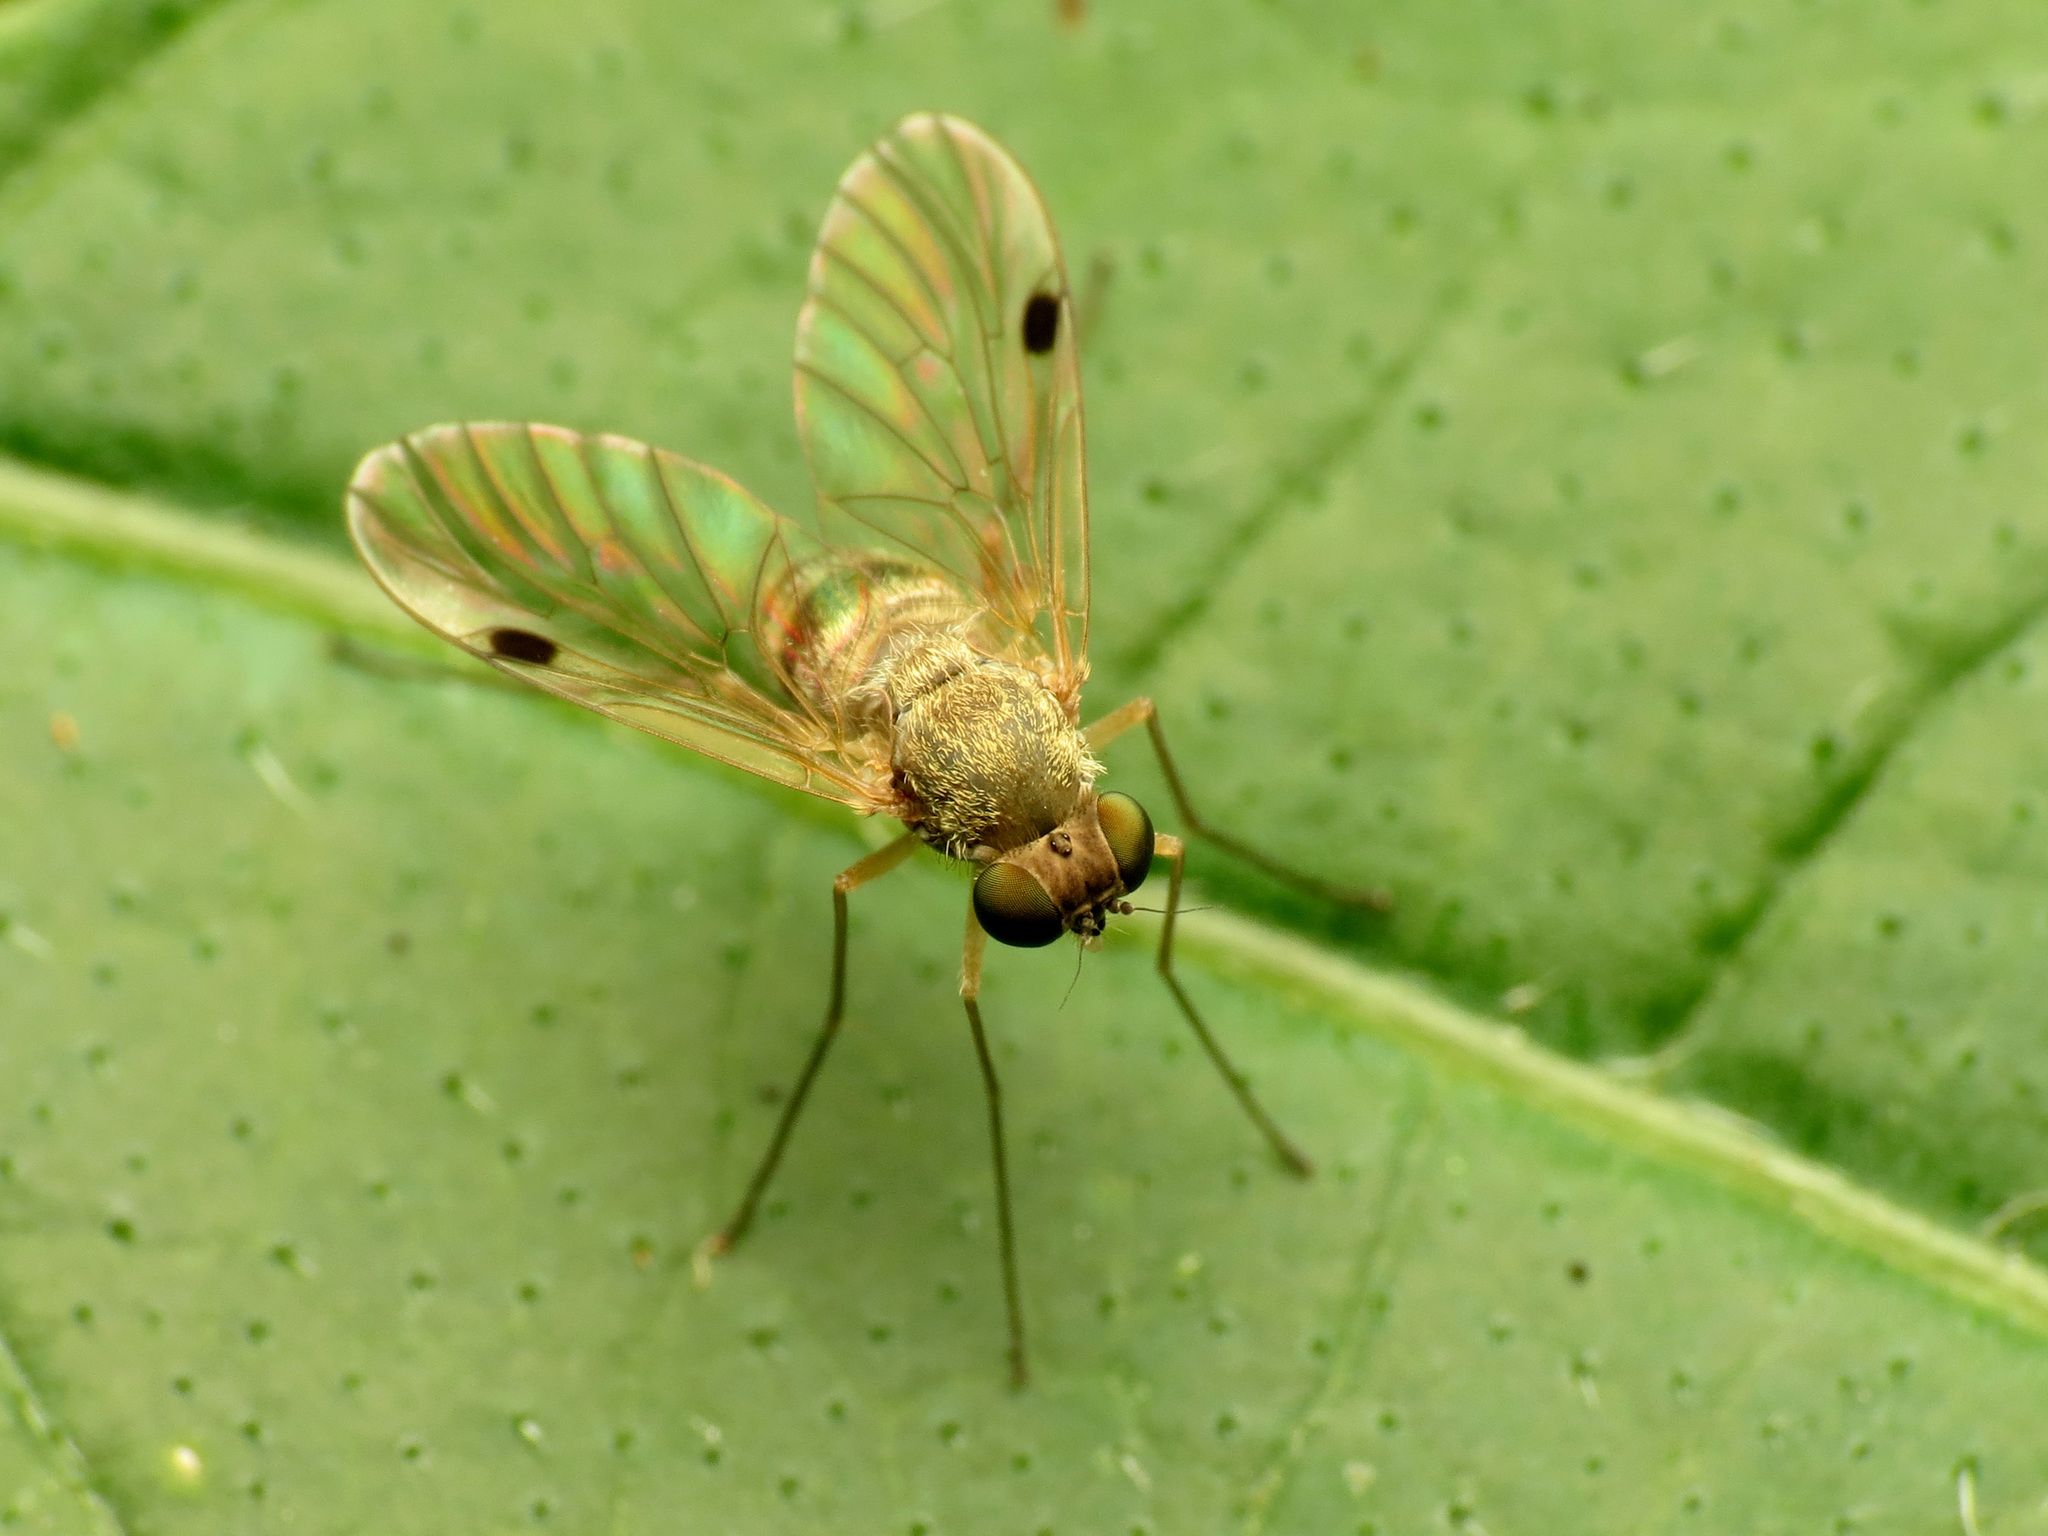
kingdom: Animalia
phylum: Arthropoda
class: Insecta
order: Diptera
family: Rhagionidae
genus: Chrysopilus
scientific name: Chrysopilus modestus
